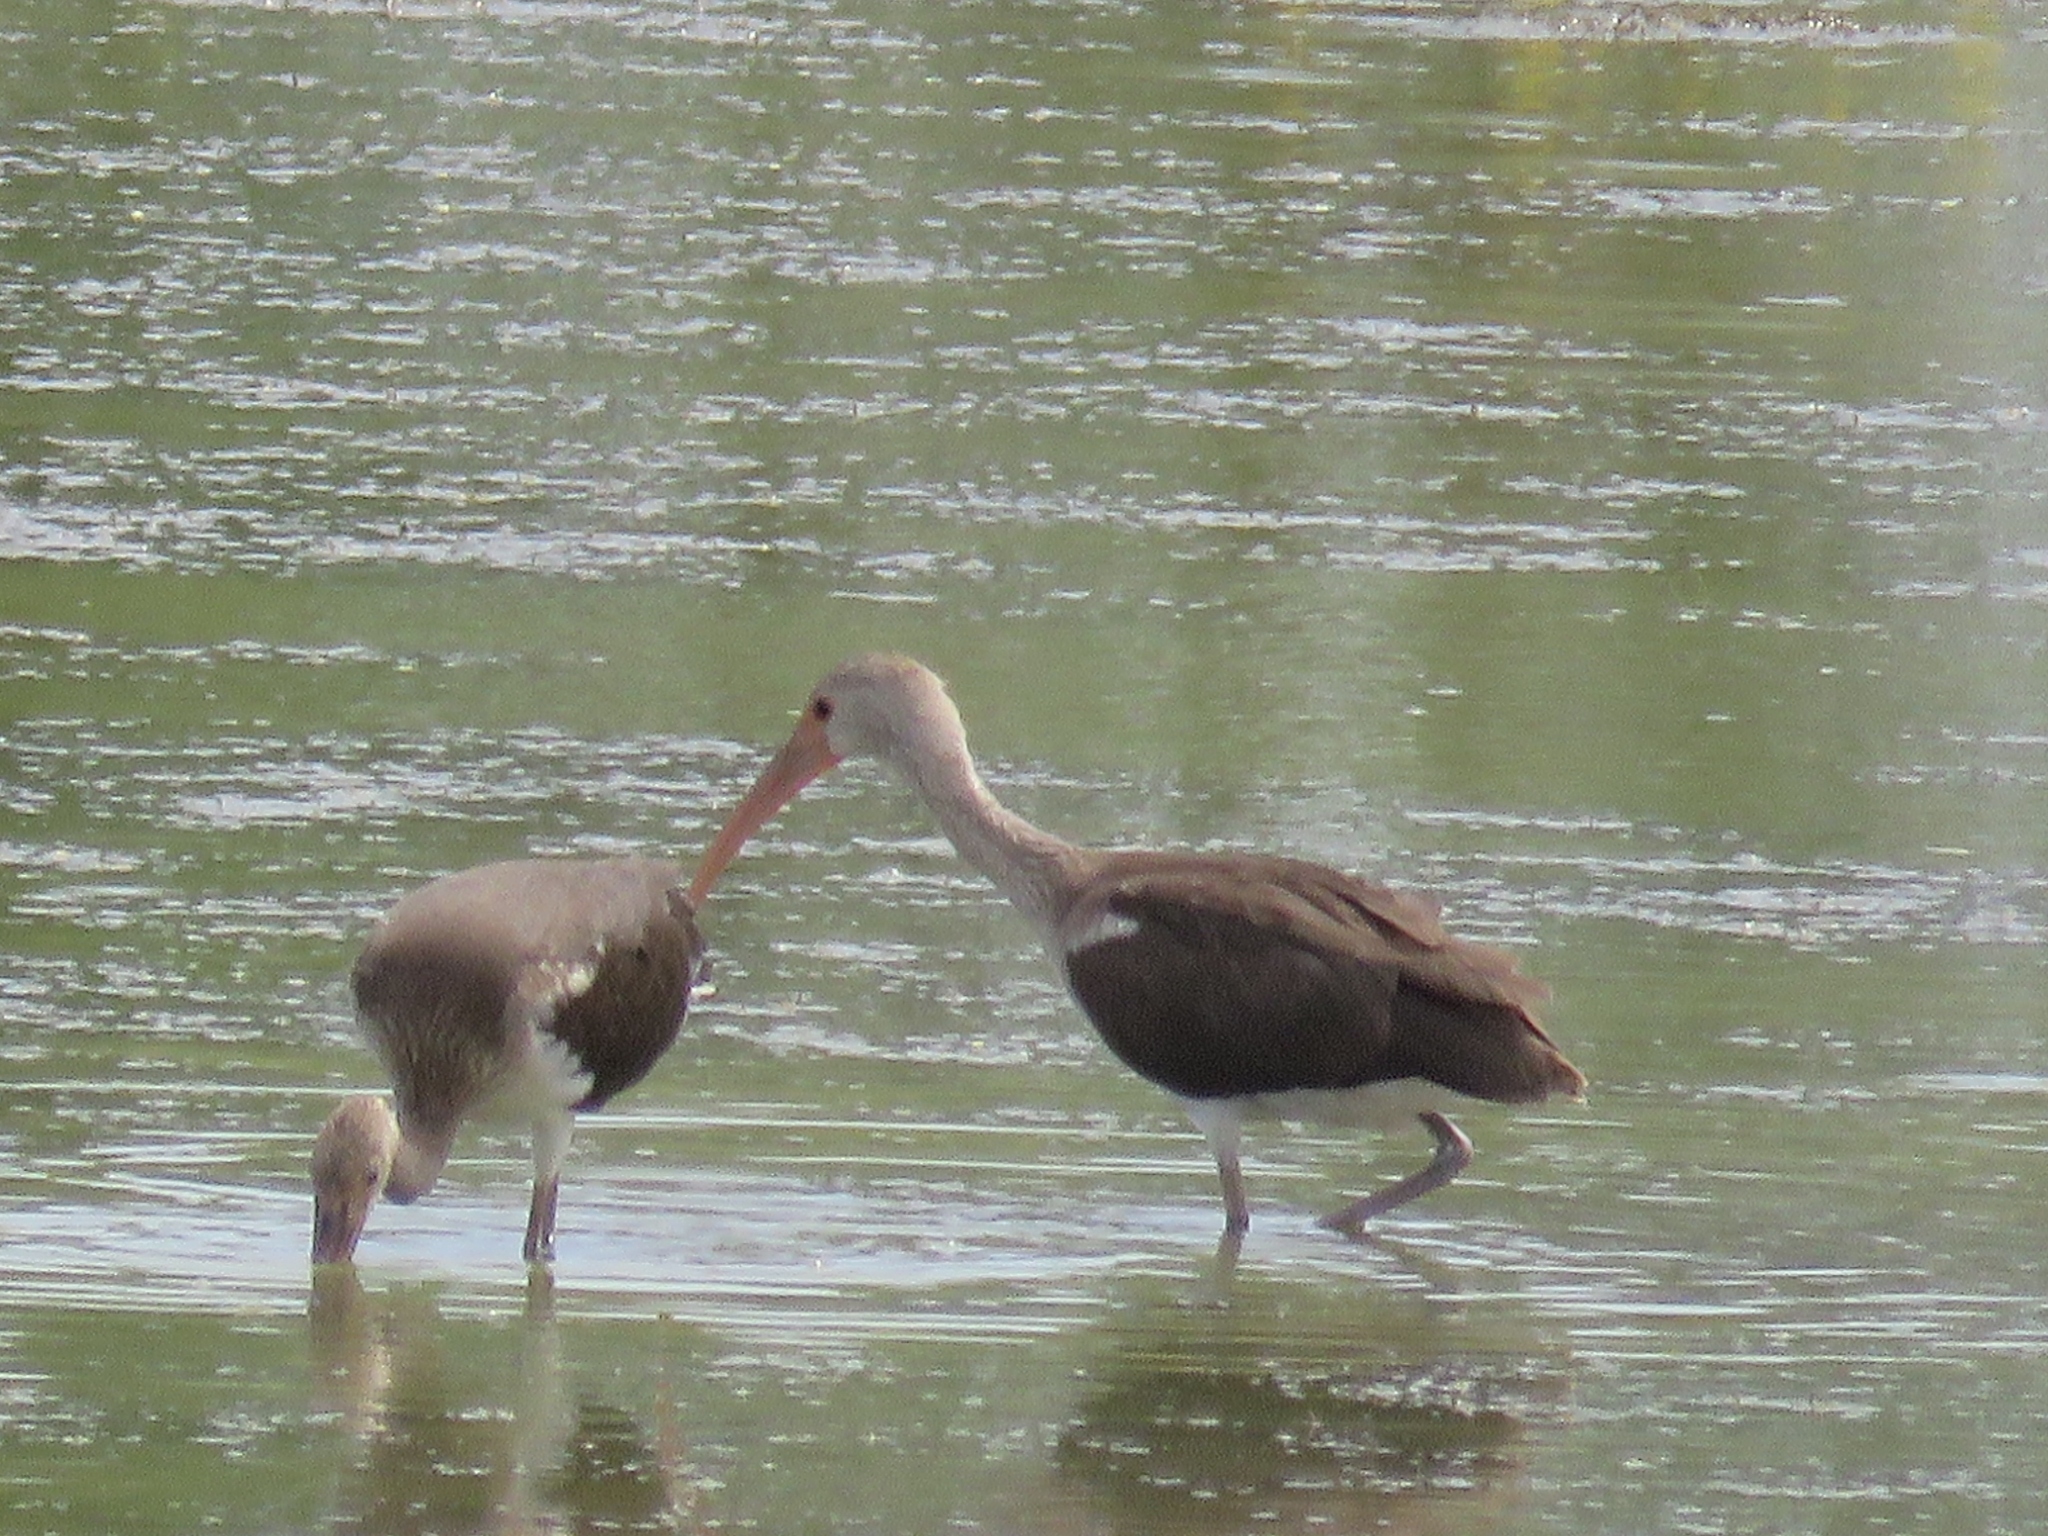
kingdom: Animalia
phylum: Chordata
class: Aves
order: Pelecaniformes
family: Threskiornithidae
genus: Eudocimus
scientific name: Eudocimus albus
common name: White ibis
